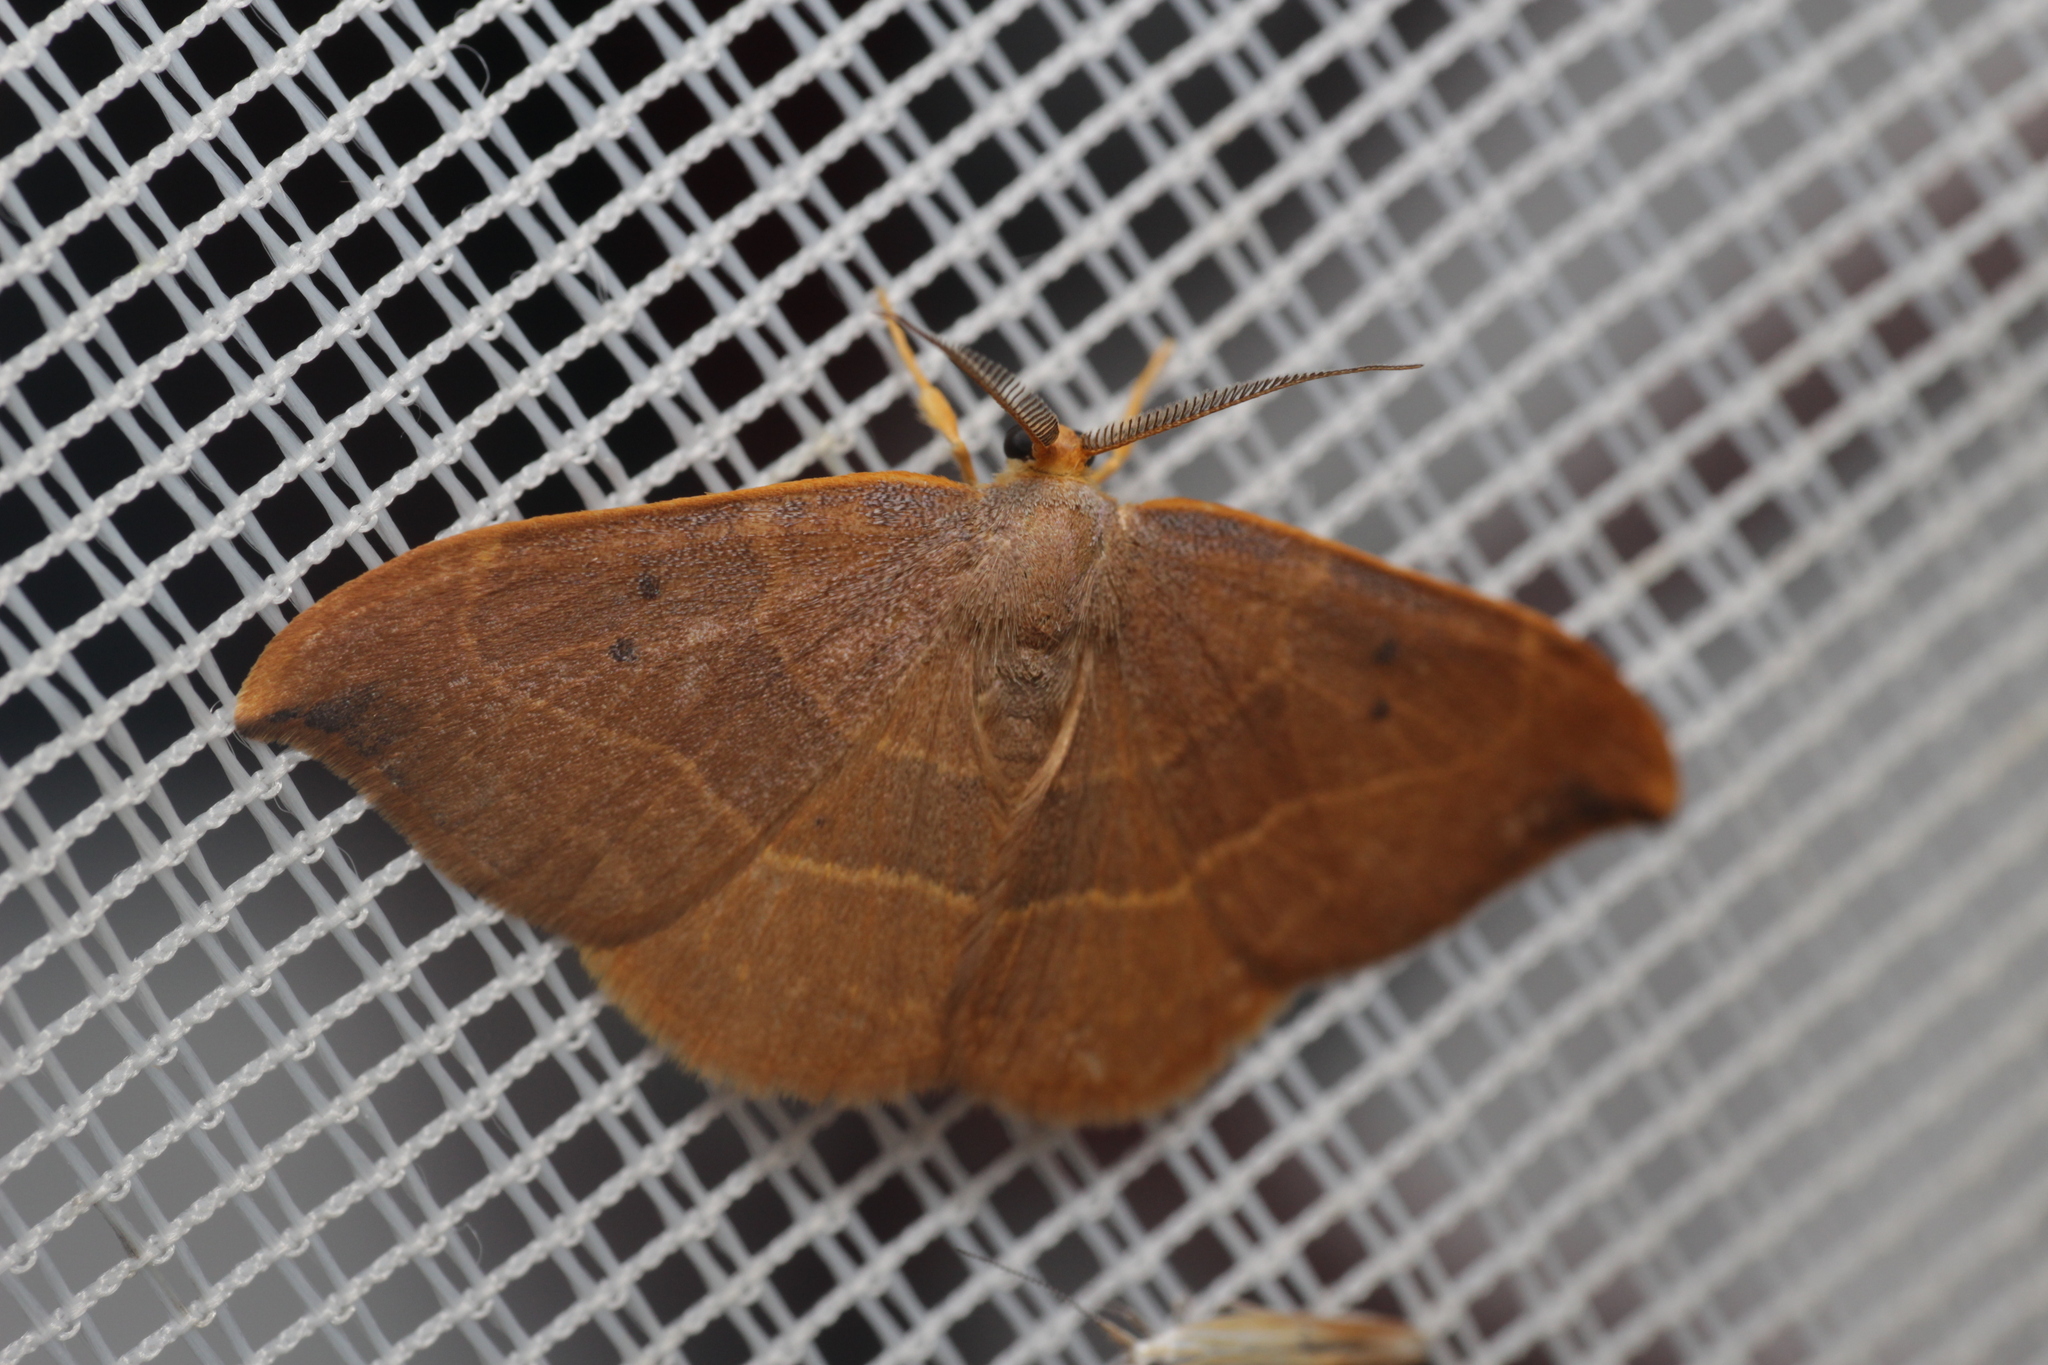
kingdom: Animalia
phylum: Arthropoda
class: Insecta
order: Lepidoptera
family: Drepanidae
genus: Watsonalla
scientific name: Watsonalla binaria
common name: Oak hook-tip
